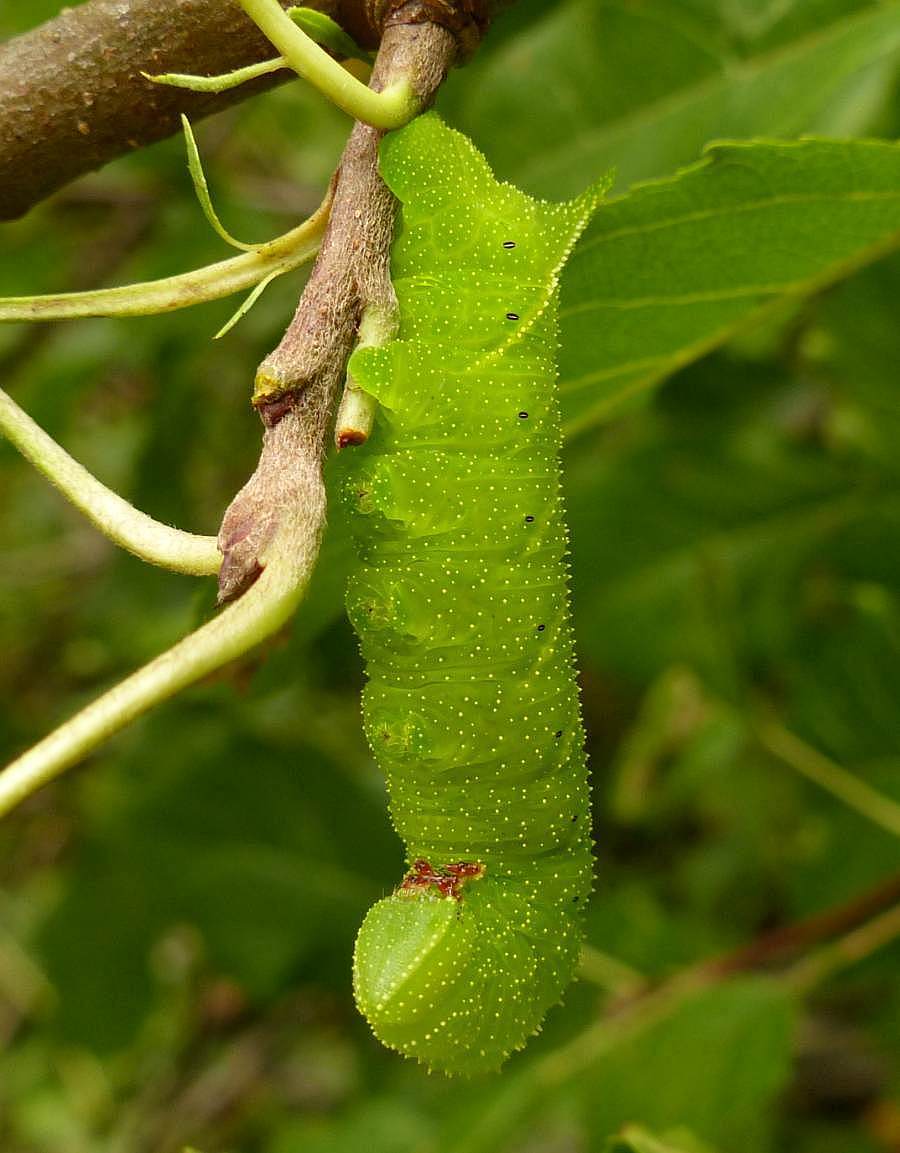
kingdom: Animalia
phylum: Arthropoda
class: Insecta
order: Lepidoptera
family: Sphingidae
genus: Paonias
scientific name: Paonias excaecata
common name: Blind-eyed sphinx
